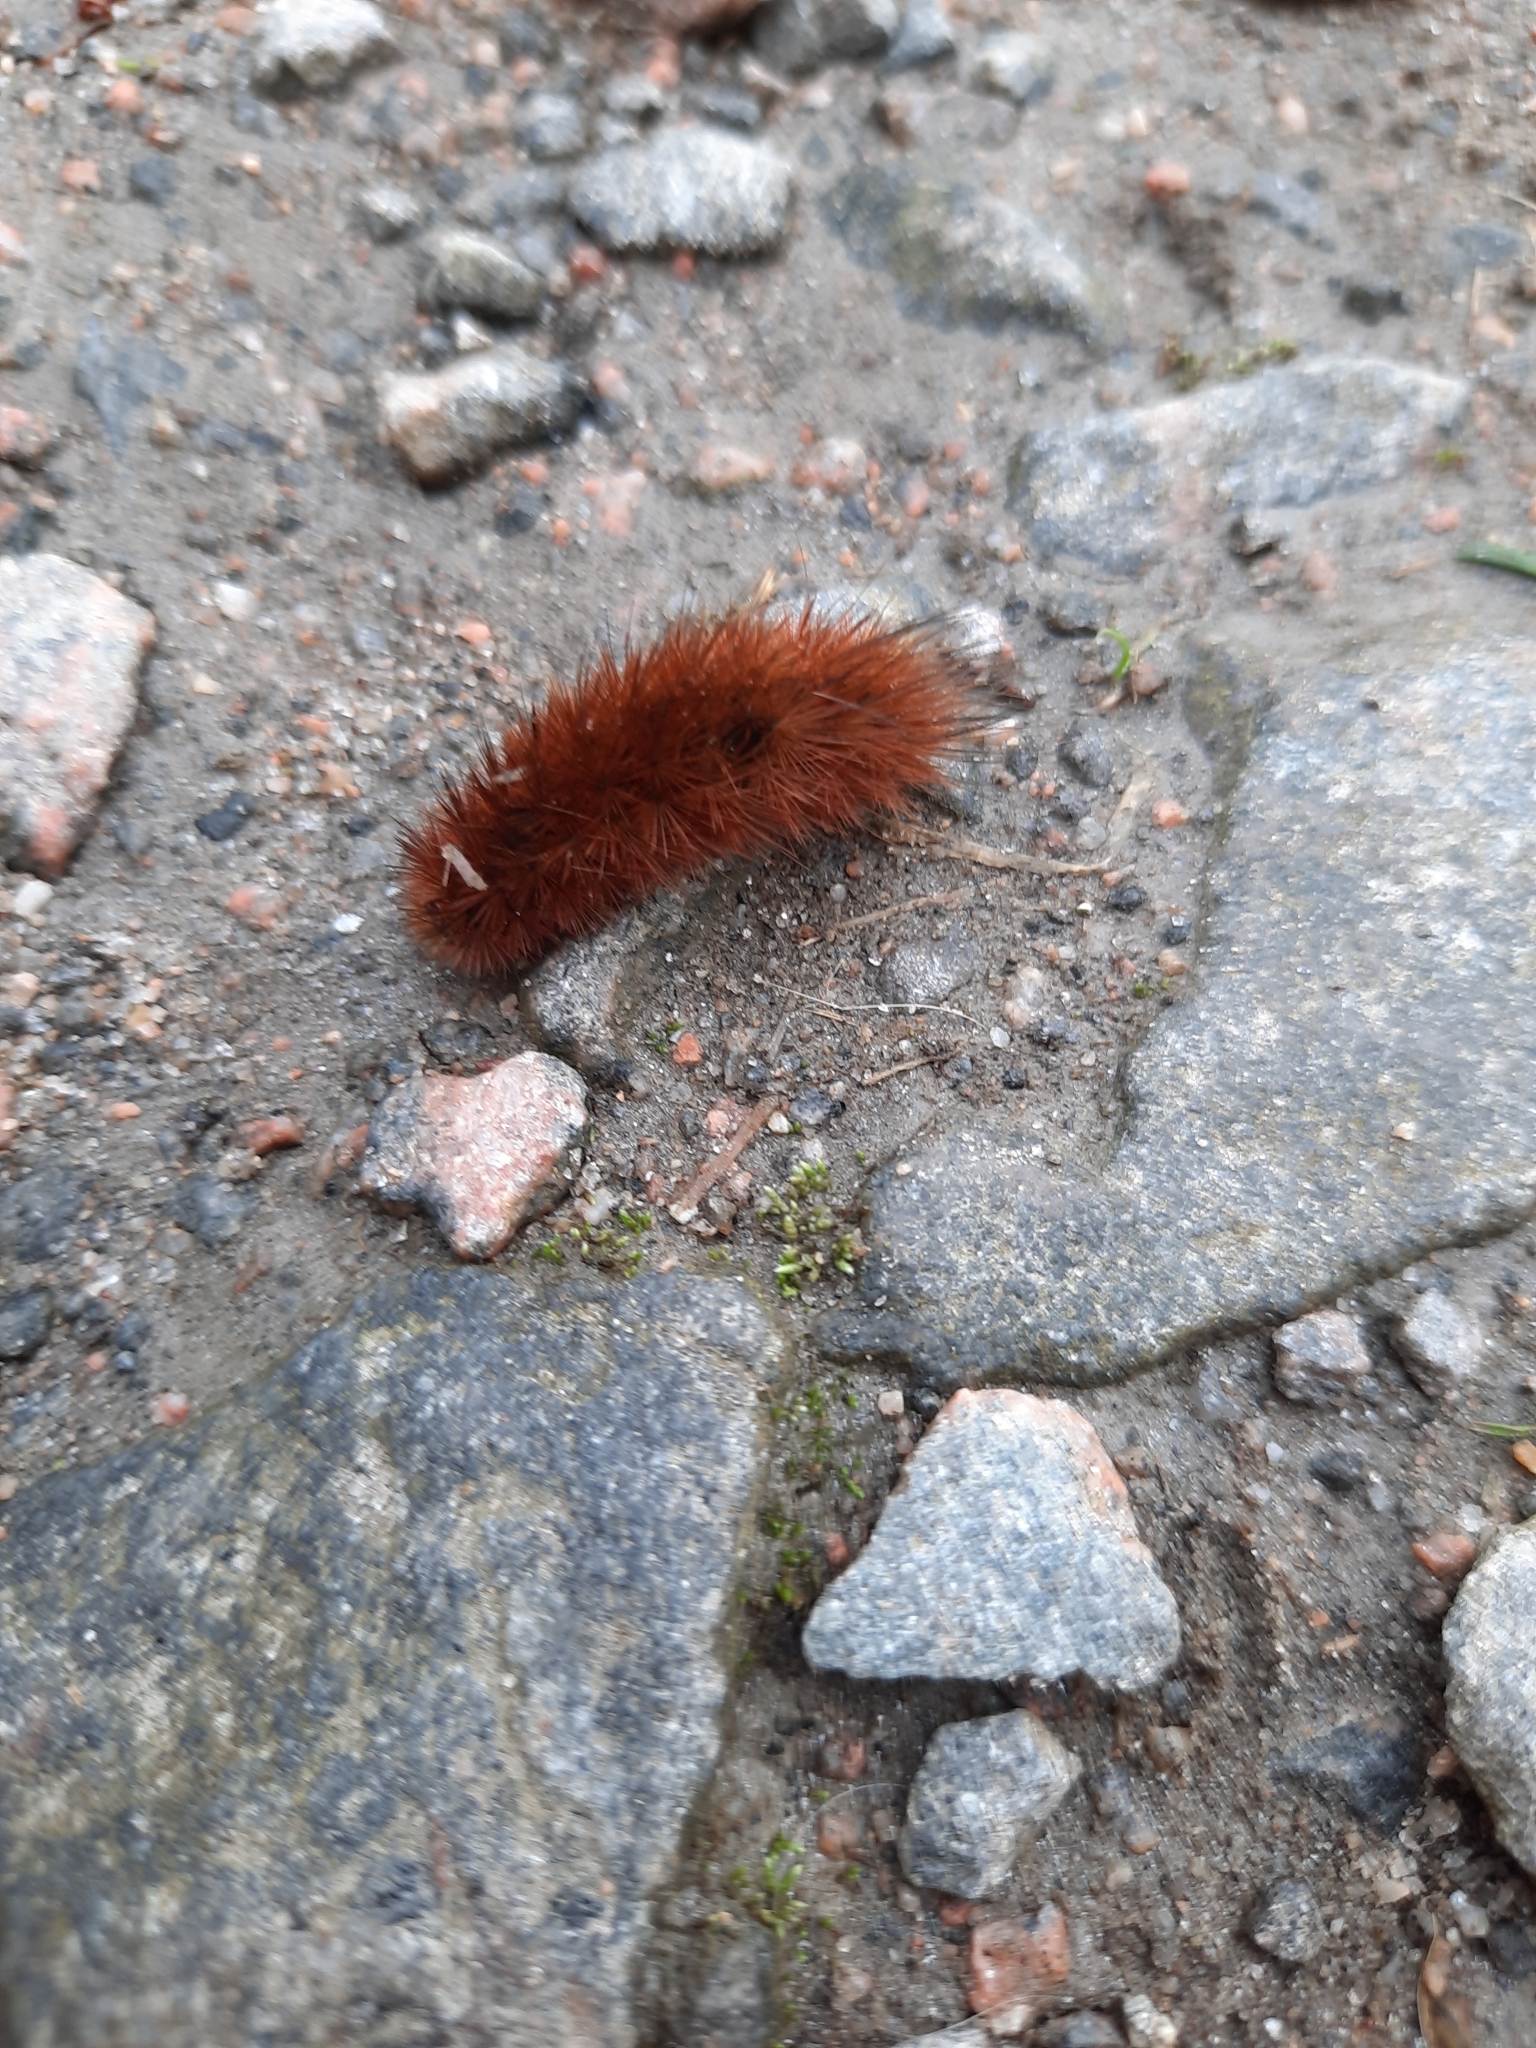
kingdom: Animalia
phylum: Arthropoda
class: Insecta
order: Lepidoptera
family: Erebidae
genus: Phragmatobia
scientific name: Phragmatobia fuliginosa
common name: Ruby tiger
